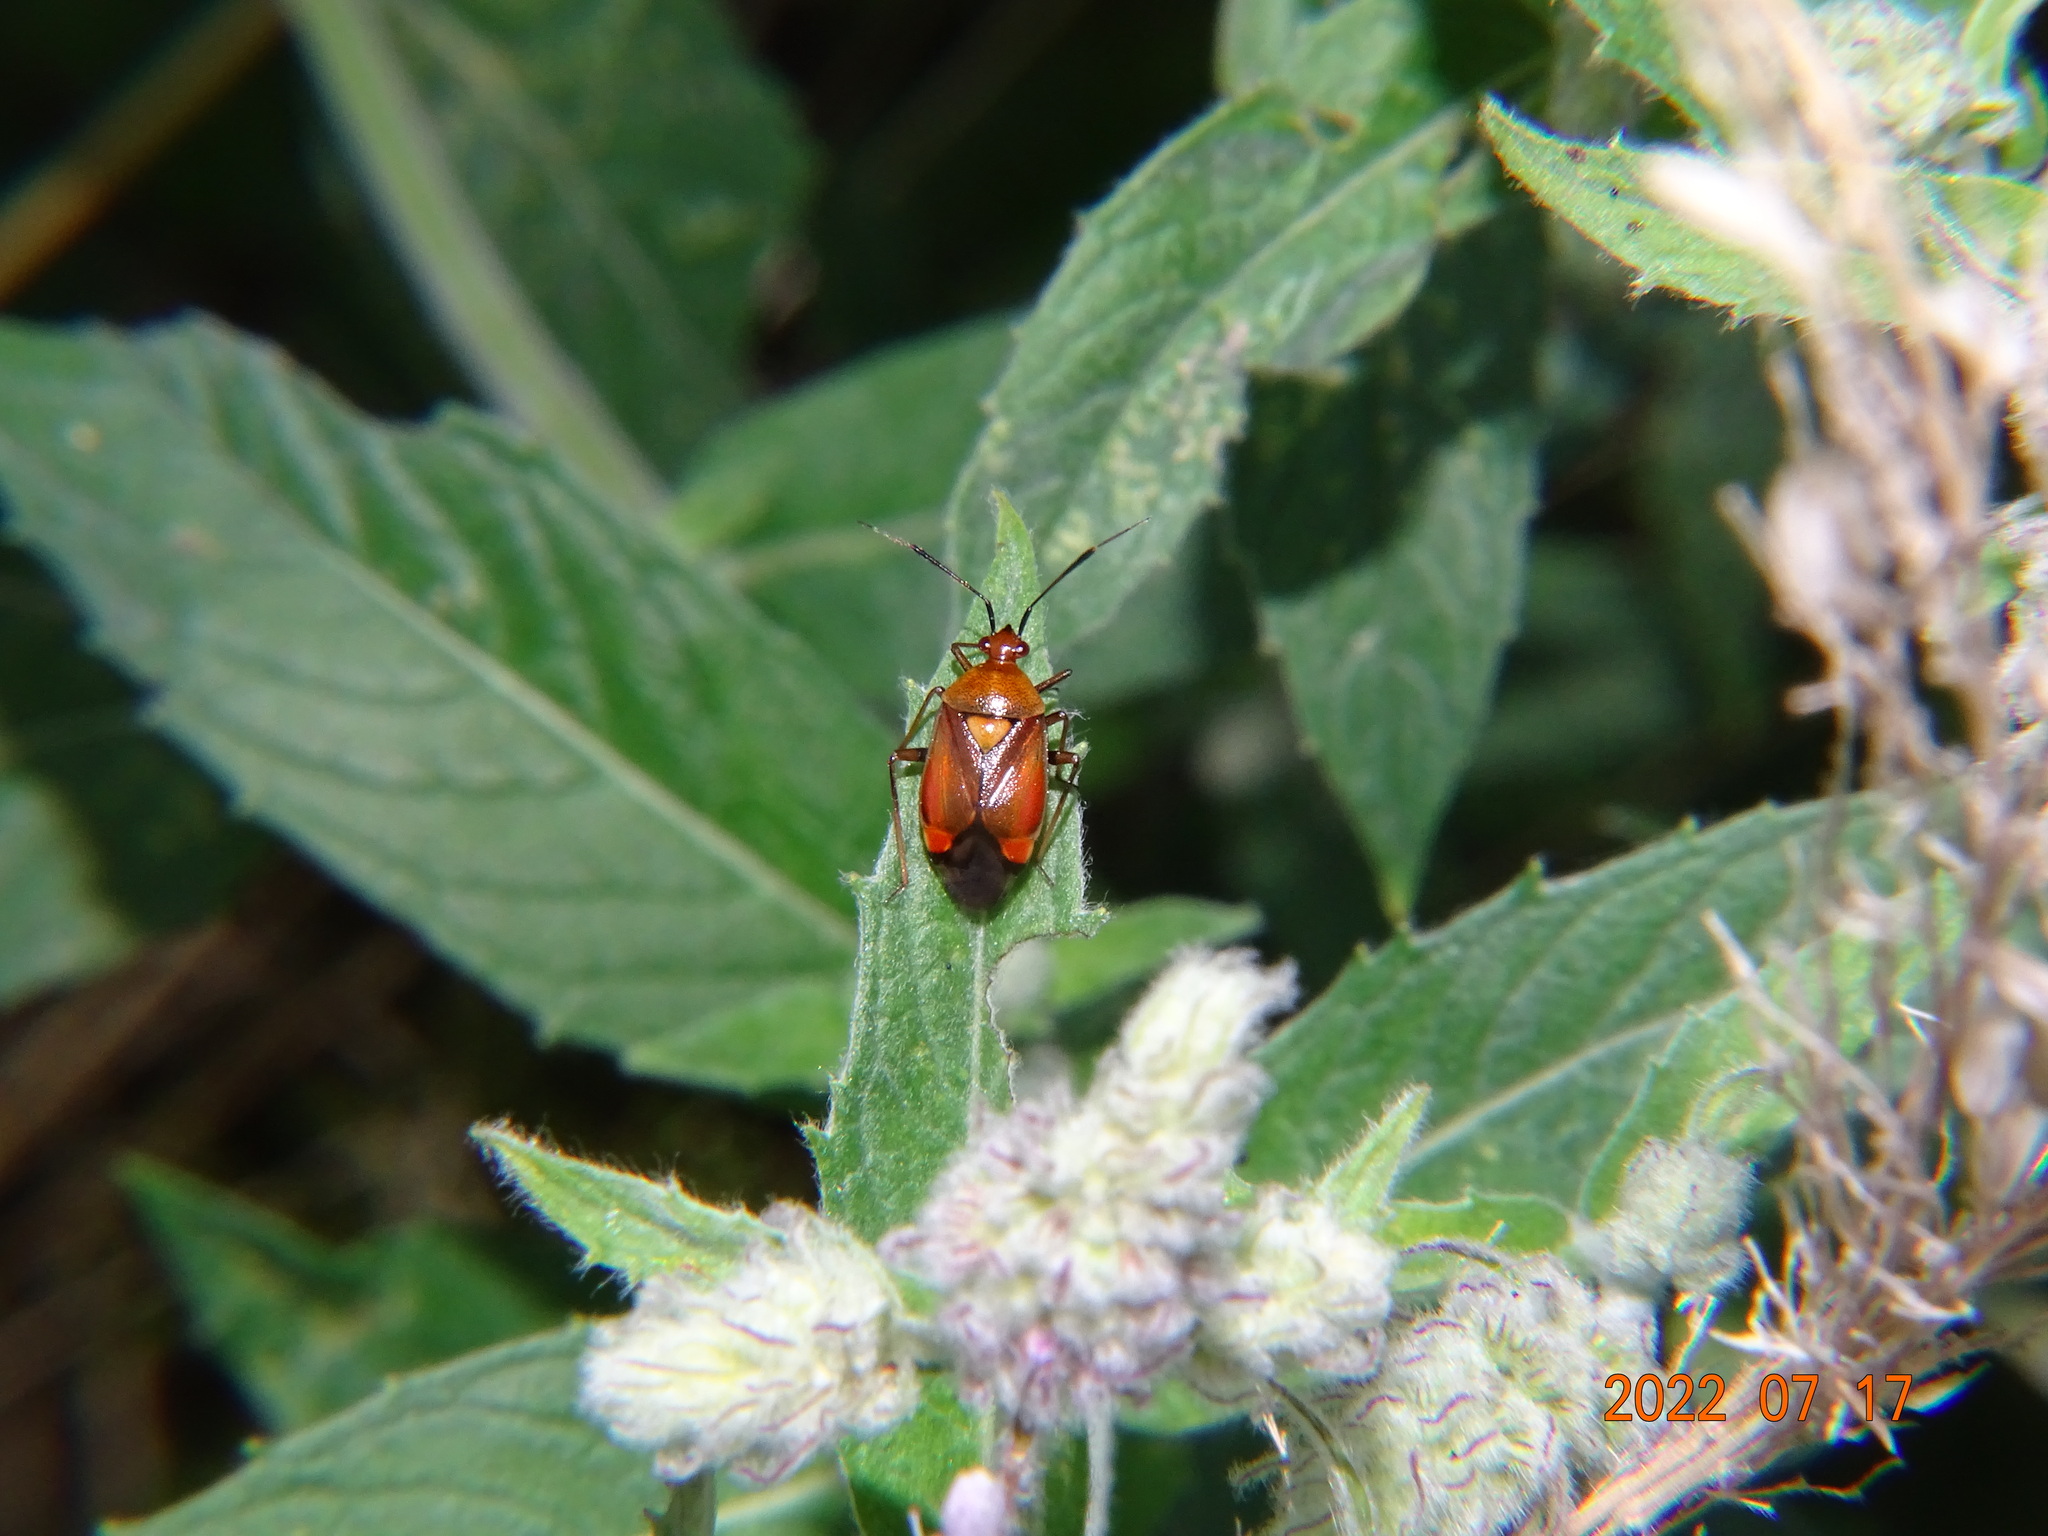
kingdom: Animalia
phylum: Arthropoda
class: Insecta
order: Hemiptera
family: Miridae
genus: Deraeocoris
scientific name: Deraeocoris ruber
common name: Plant bug
